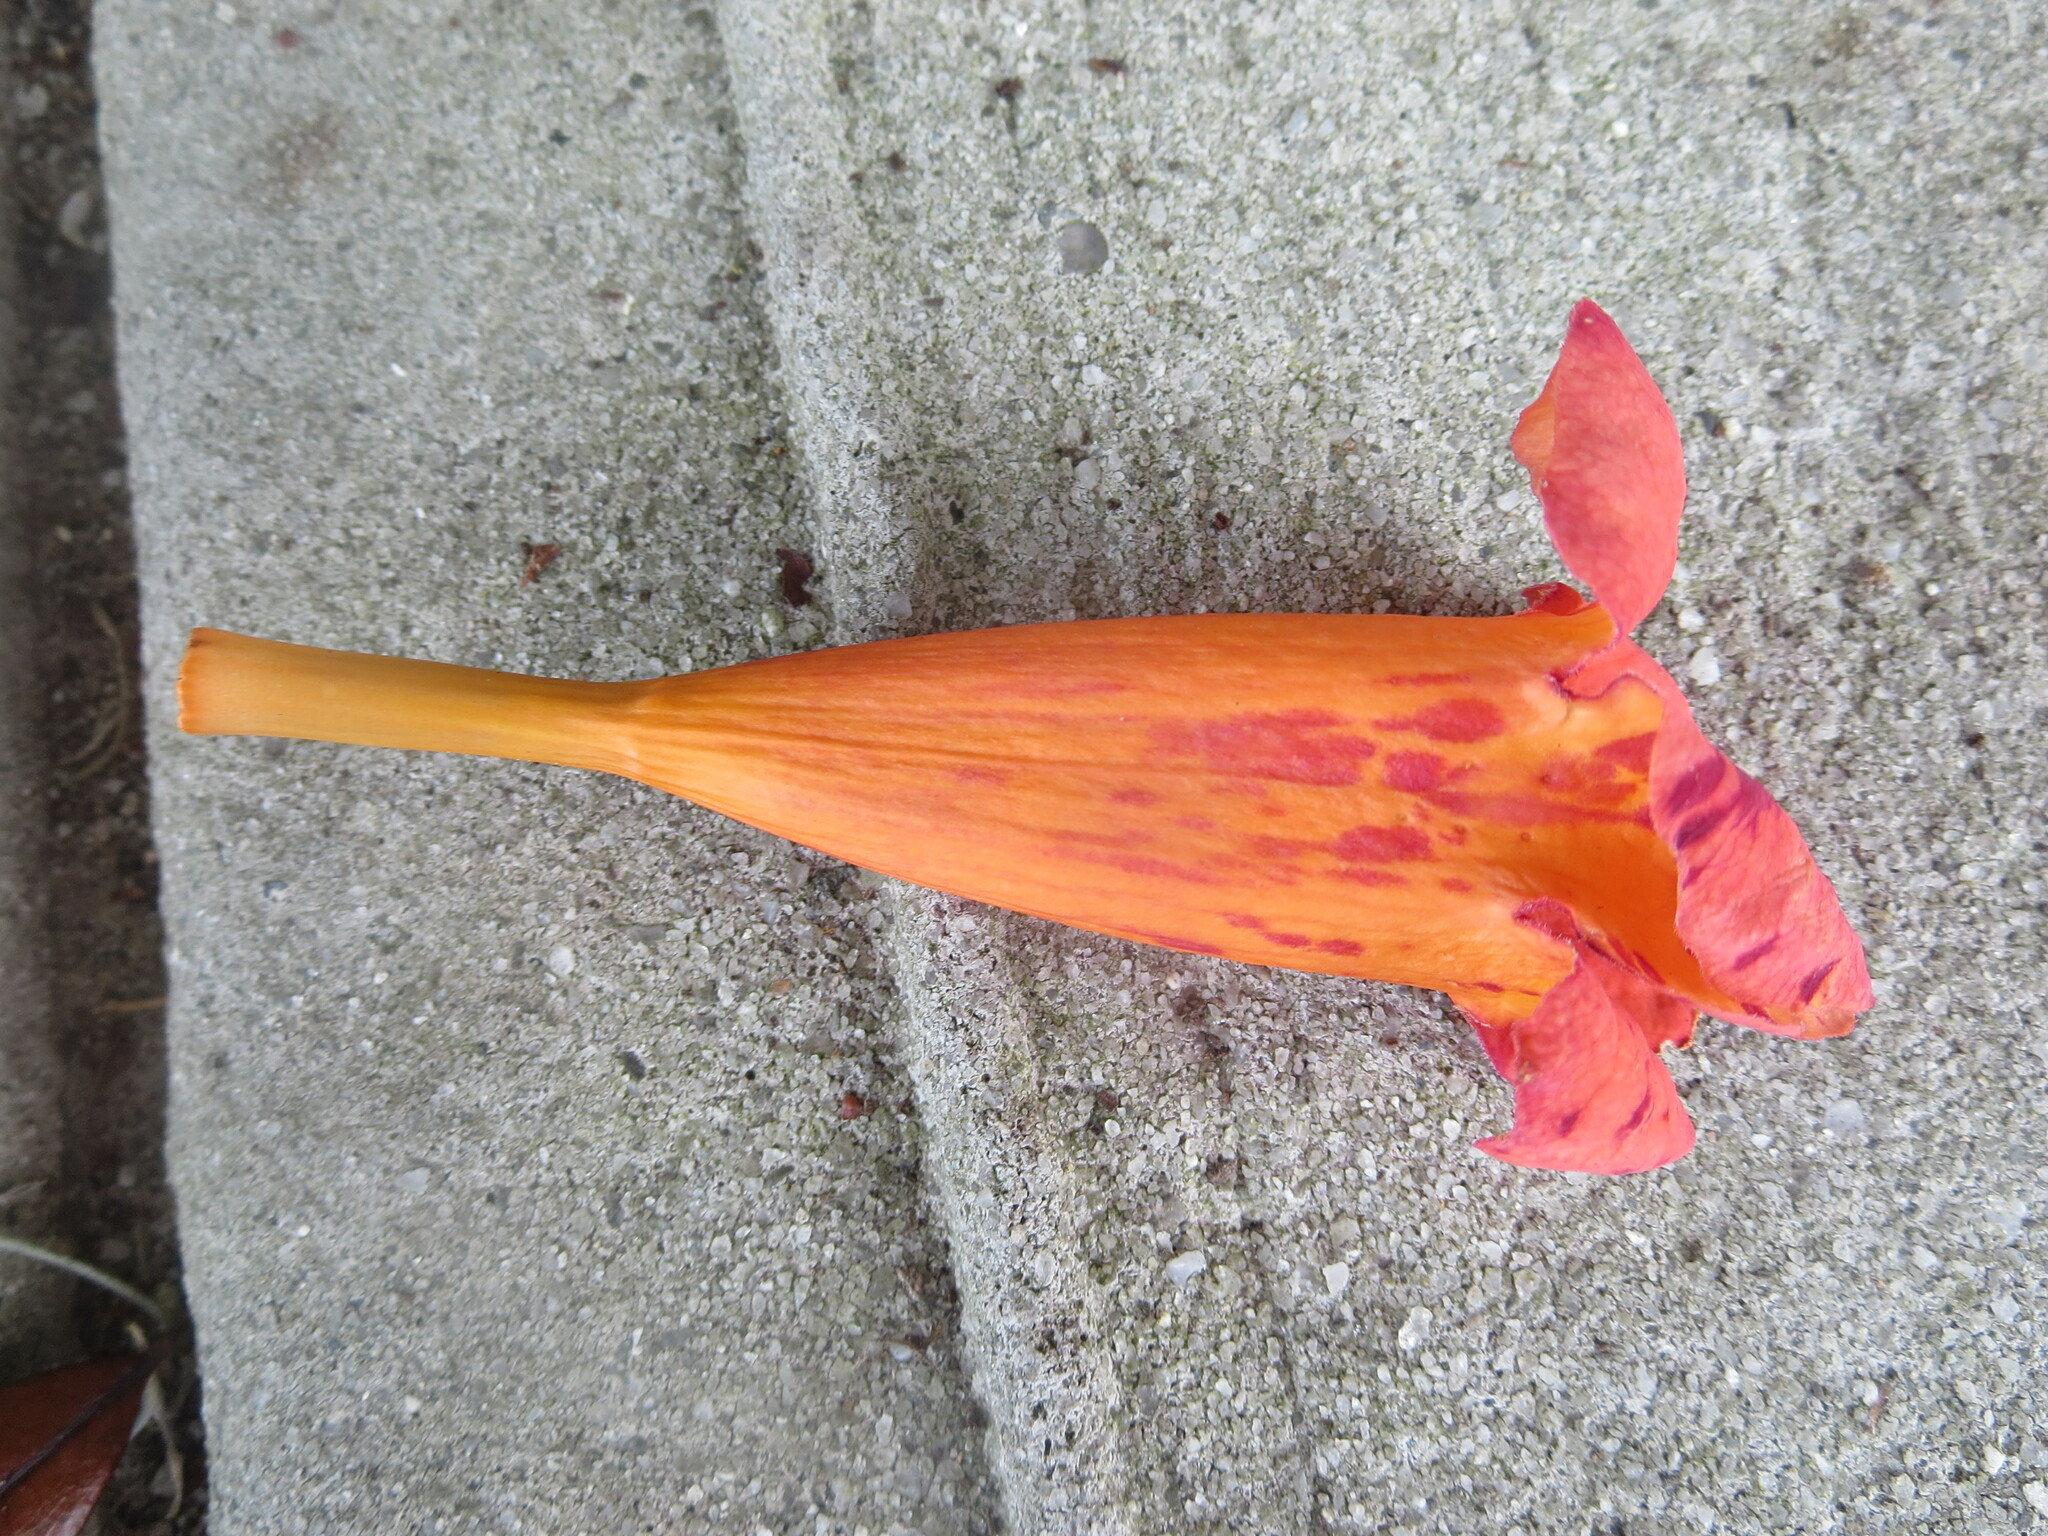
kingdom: Plantae
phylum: Tracheophyta
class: Magnoliopsida
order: Lamiales
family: Bignoniaceae
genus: Campsis
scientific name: Campsis radicans
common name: Trumpet-creeper
